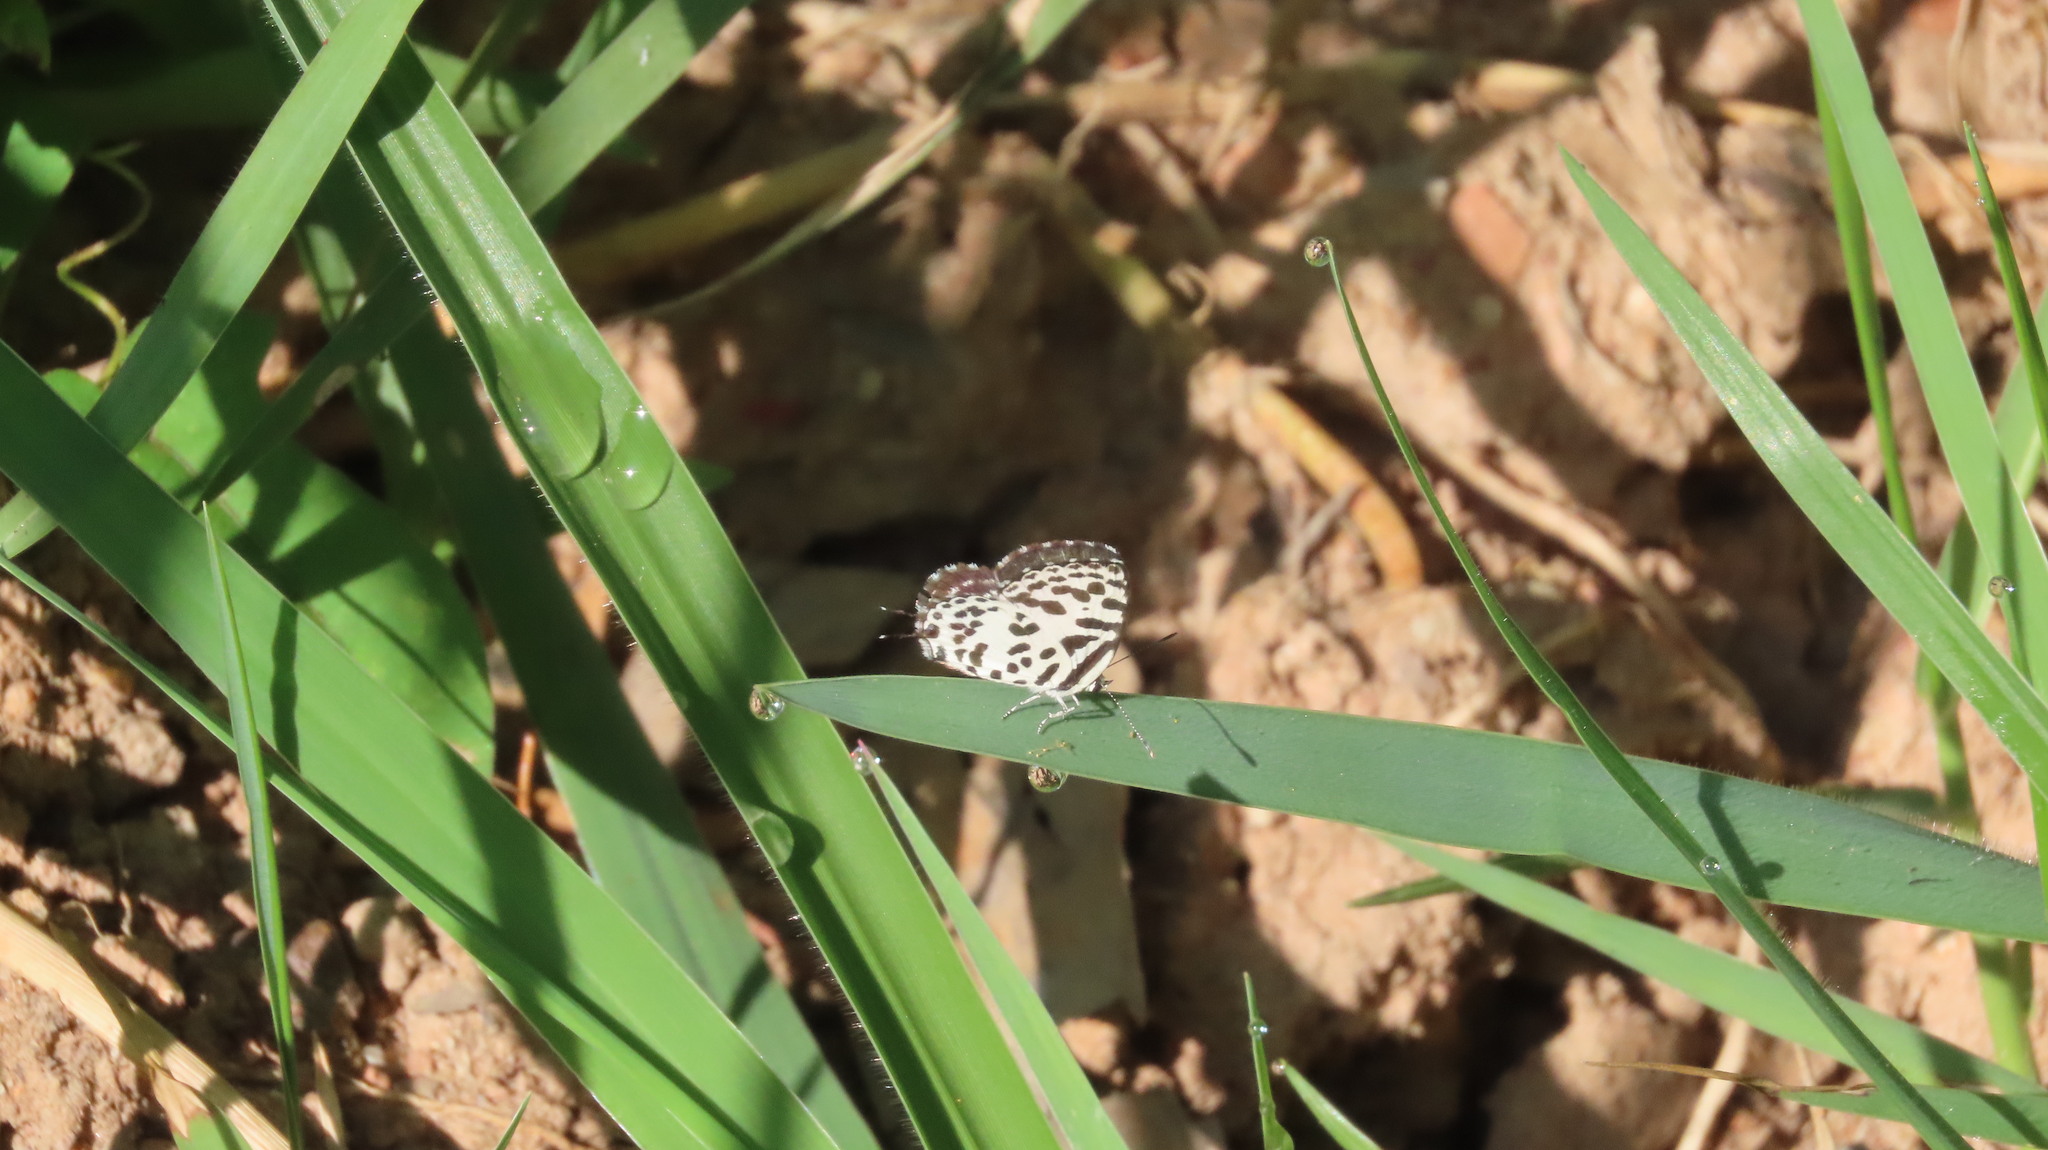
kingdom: Animalia
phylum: Arthropoda
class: Insecta
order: Lepidoptera
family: Lycaenidae
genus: Castalius
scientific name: Castalius rosimon
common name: Common pierrot
